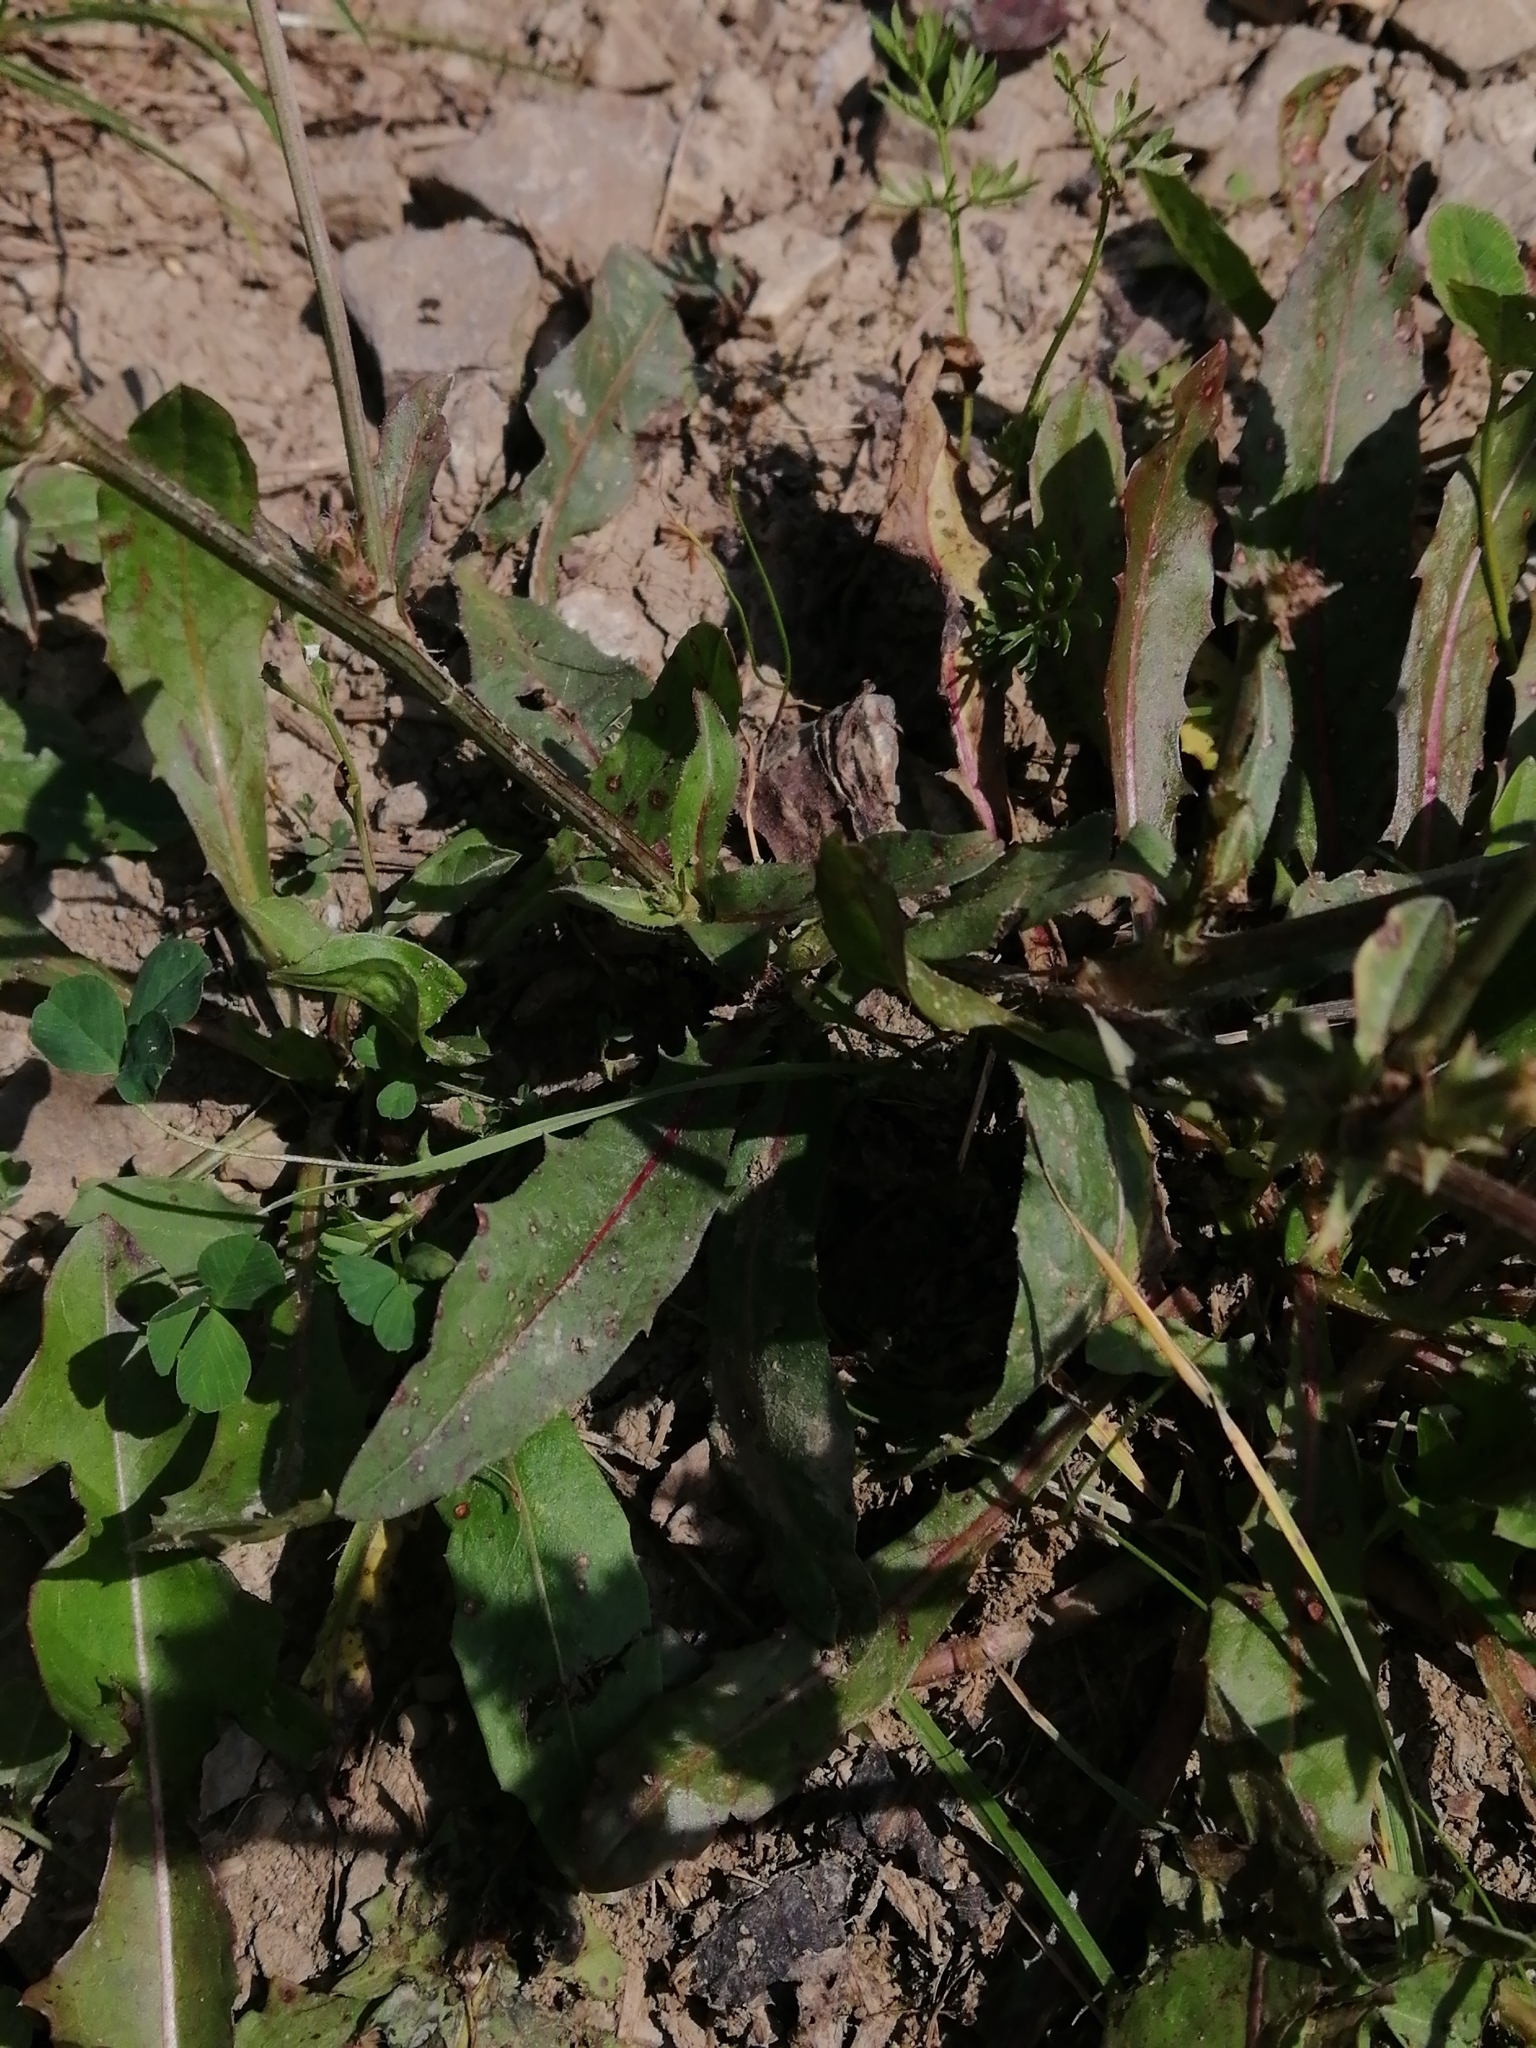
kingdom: Plantae
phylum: Tracheophyta
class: Magnoliopsida
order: Asterales
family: Asteraceae
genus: Cichorium
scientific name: Cichorium intybus
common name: Chicory
